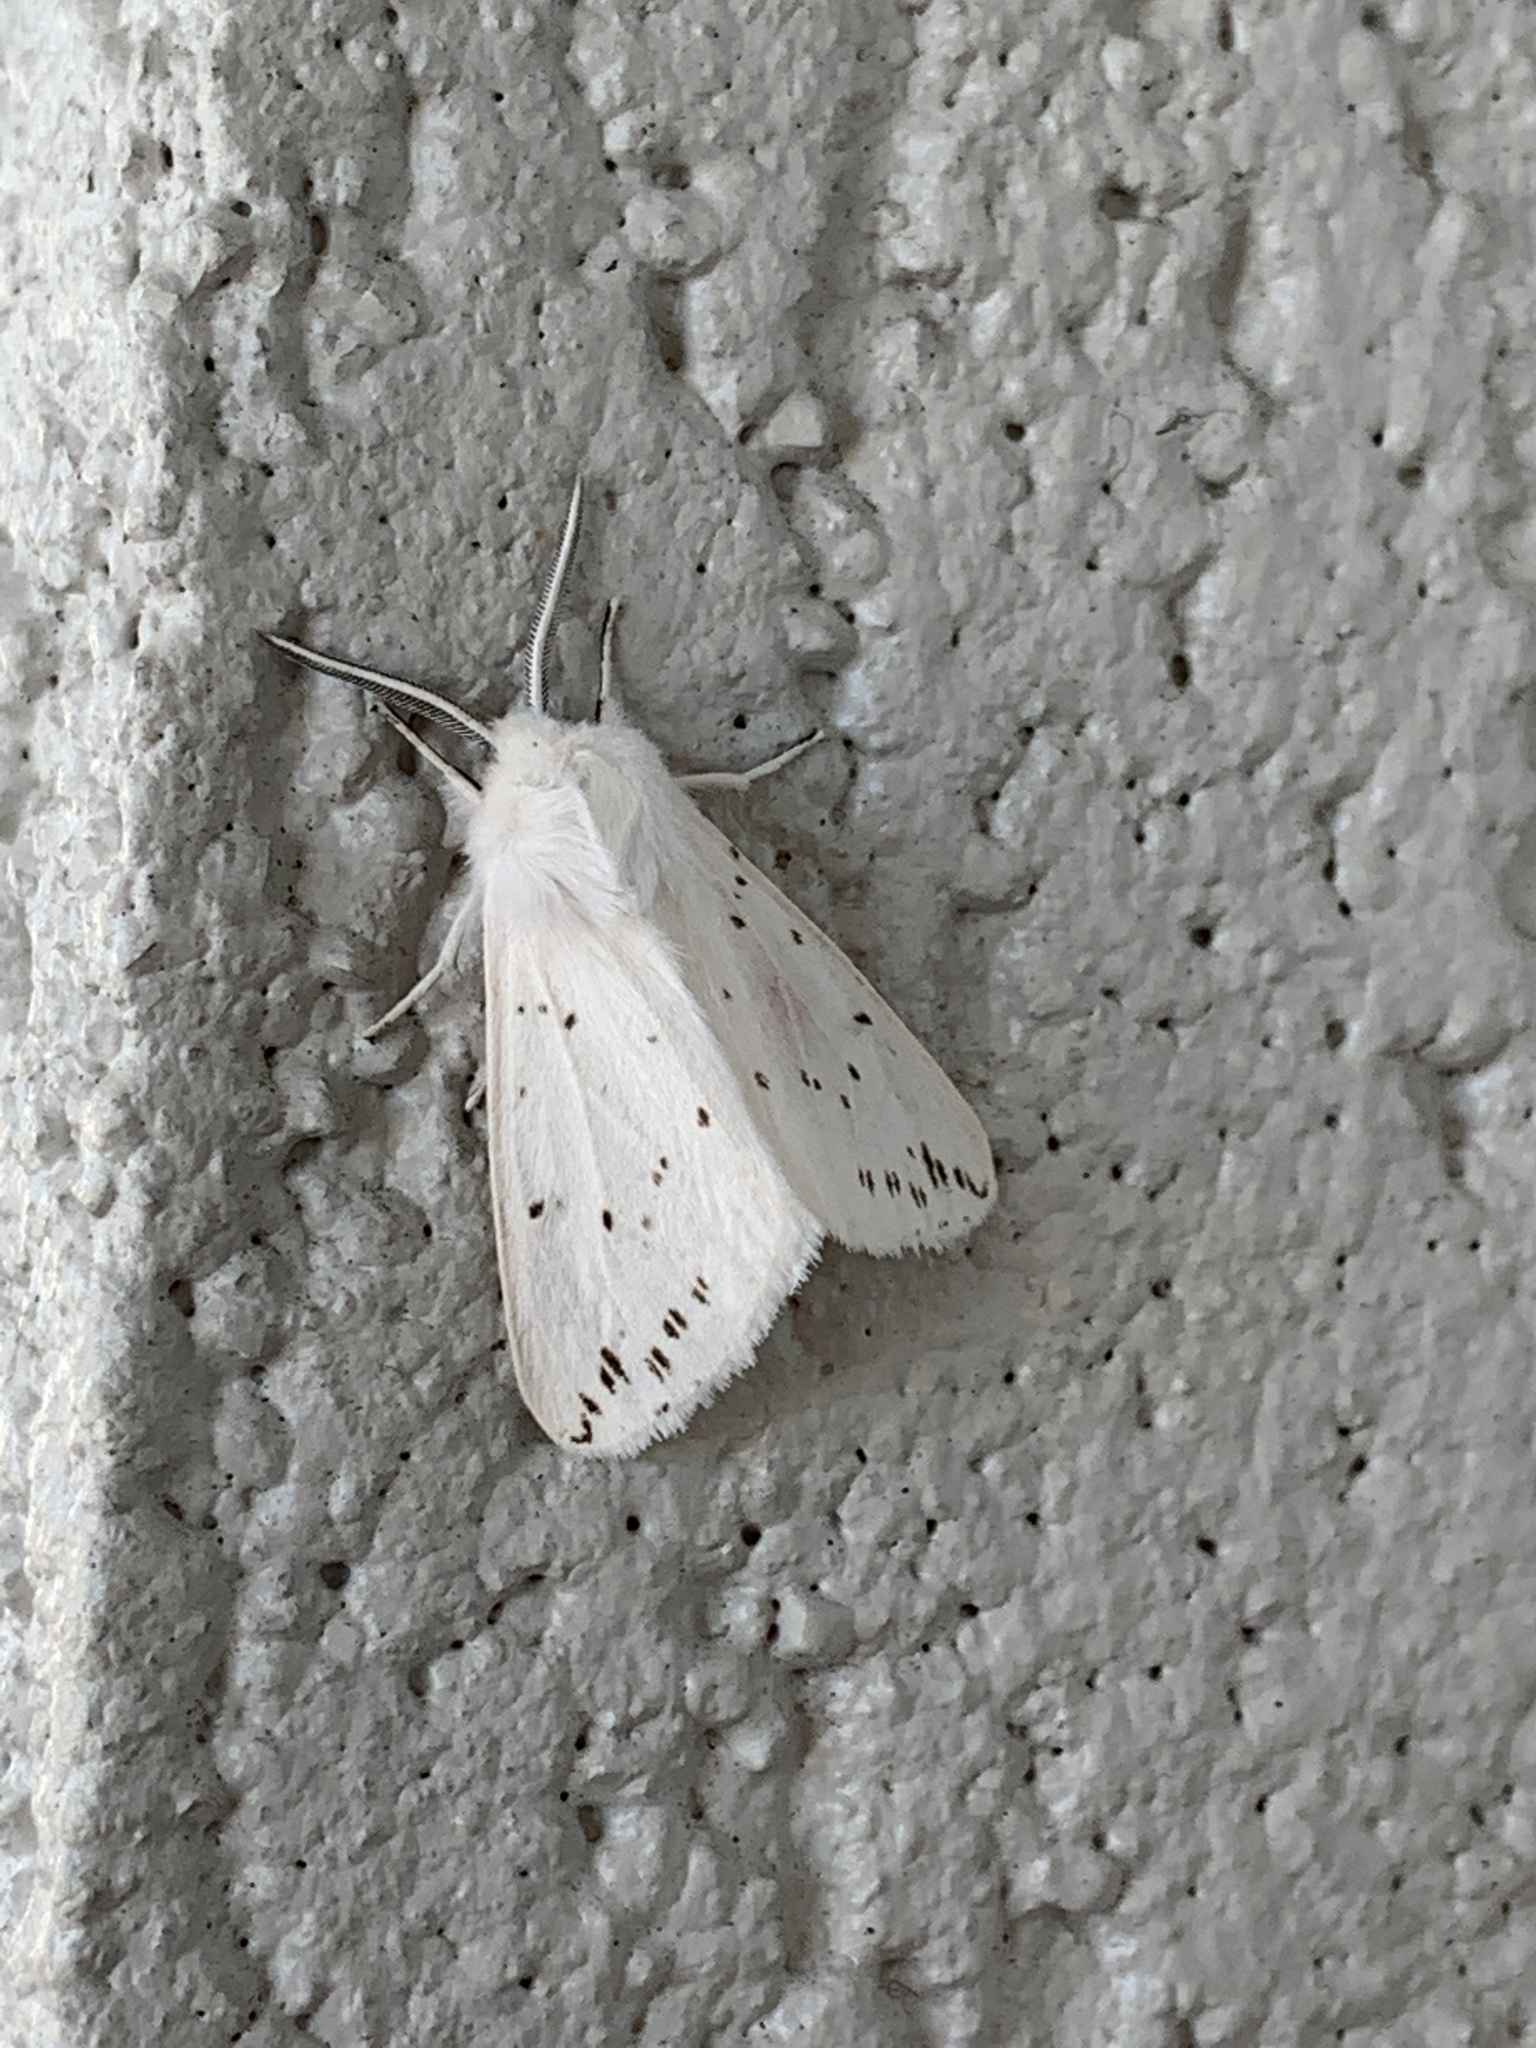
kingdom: Animalia
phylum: Arthropoda
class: Insecta
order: Lepidoptera
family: Erebidae
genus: Spilosoma
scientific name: Spilosoma congrua
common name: Agreeable tiger moth
